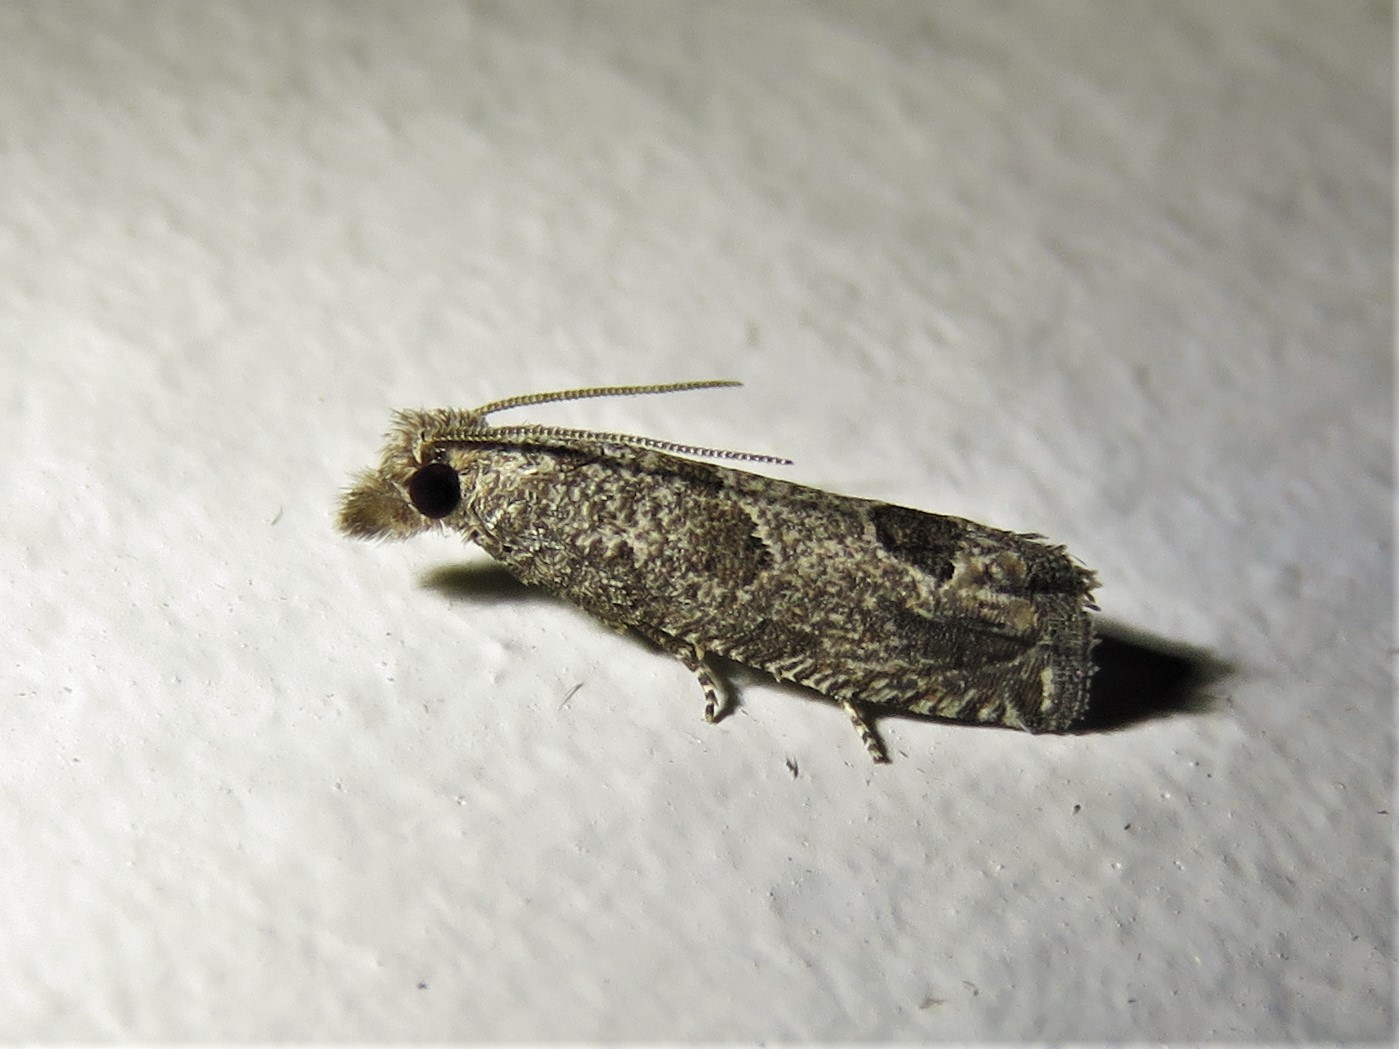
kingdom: Animalia
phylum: Arthropoda
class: Insecta
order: Lepidoptera
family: Tortricidae
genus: Pelochrista
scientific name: Pelochrista consobrinana
